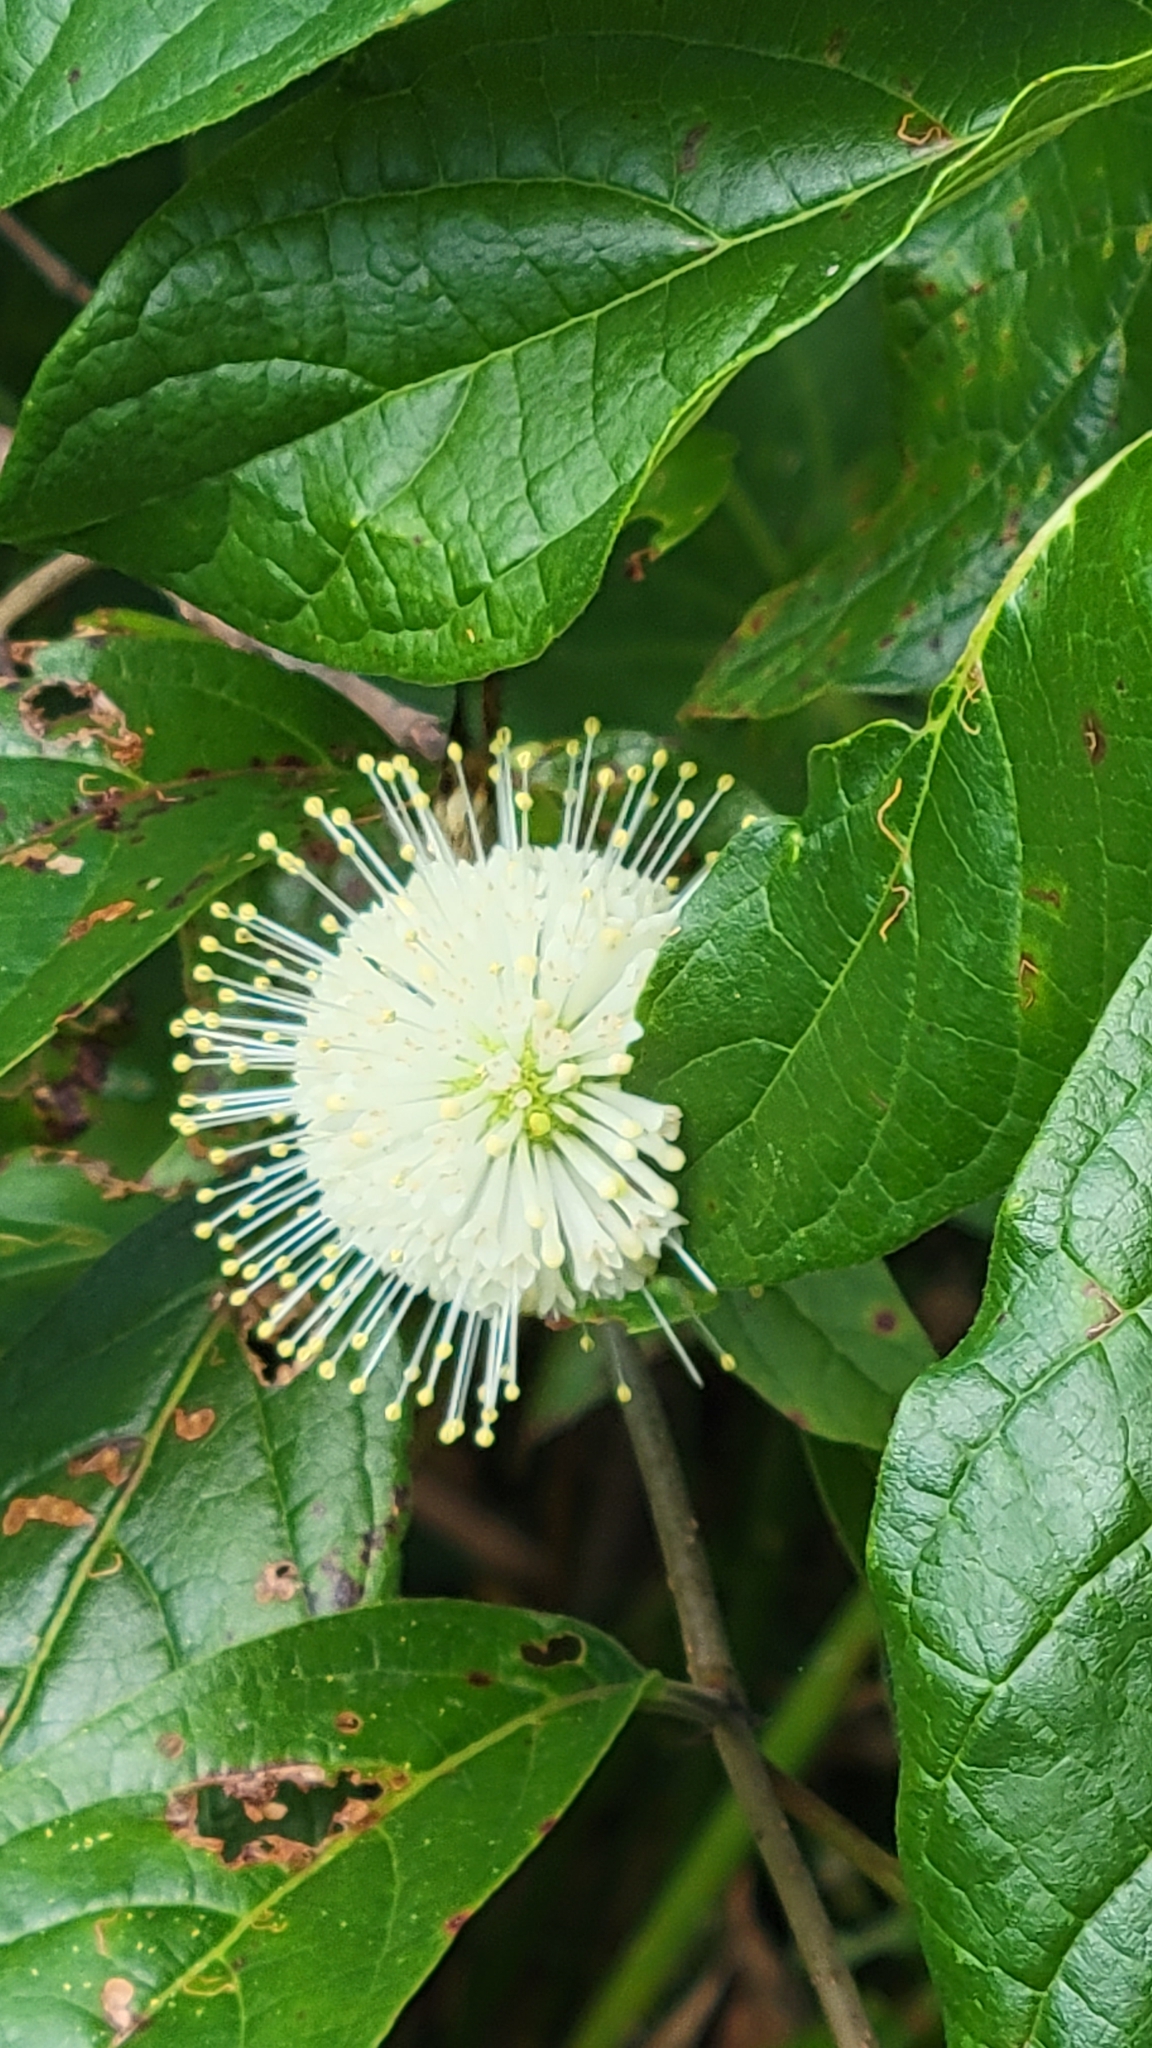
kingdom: Plantae
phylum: Tracheophyta
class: Magnoliopsida
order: Gentianales
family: Rubiaceae
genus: Cephalanthus
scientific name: Cephalanthus occidentalis
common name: Button-willow
